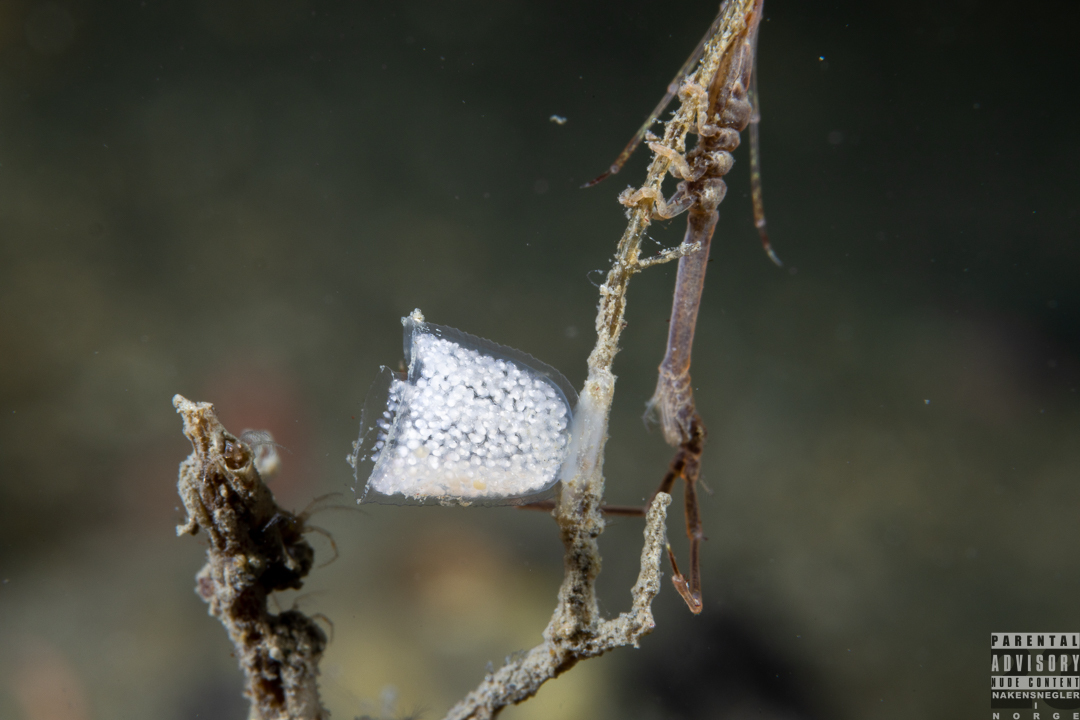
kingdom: Animalia
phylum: Mollusca
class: Gastropoda
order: Nudibranchia
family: Eubranchidae
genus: Eubranchus
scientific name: Eubranchus tricolor
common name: Painted balloon aeolis
